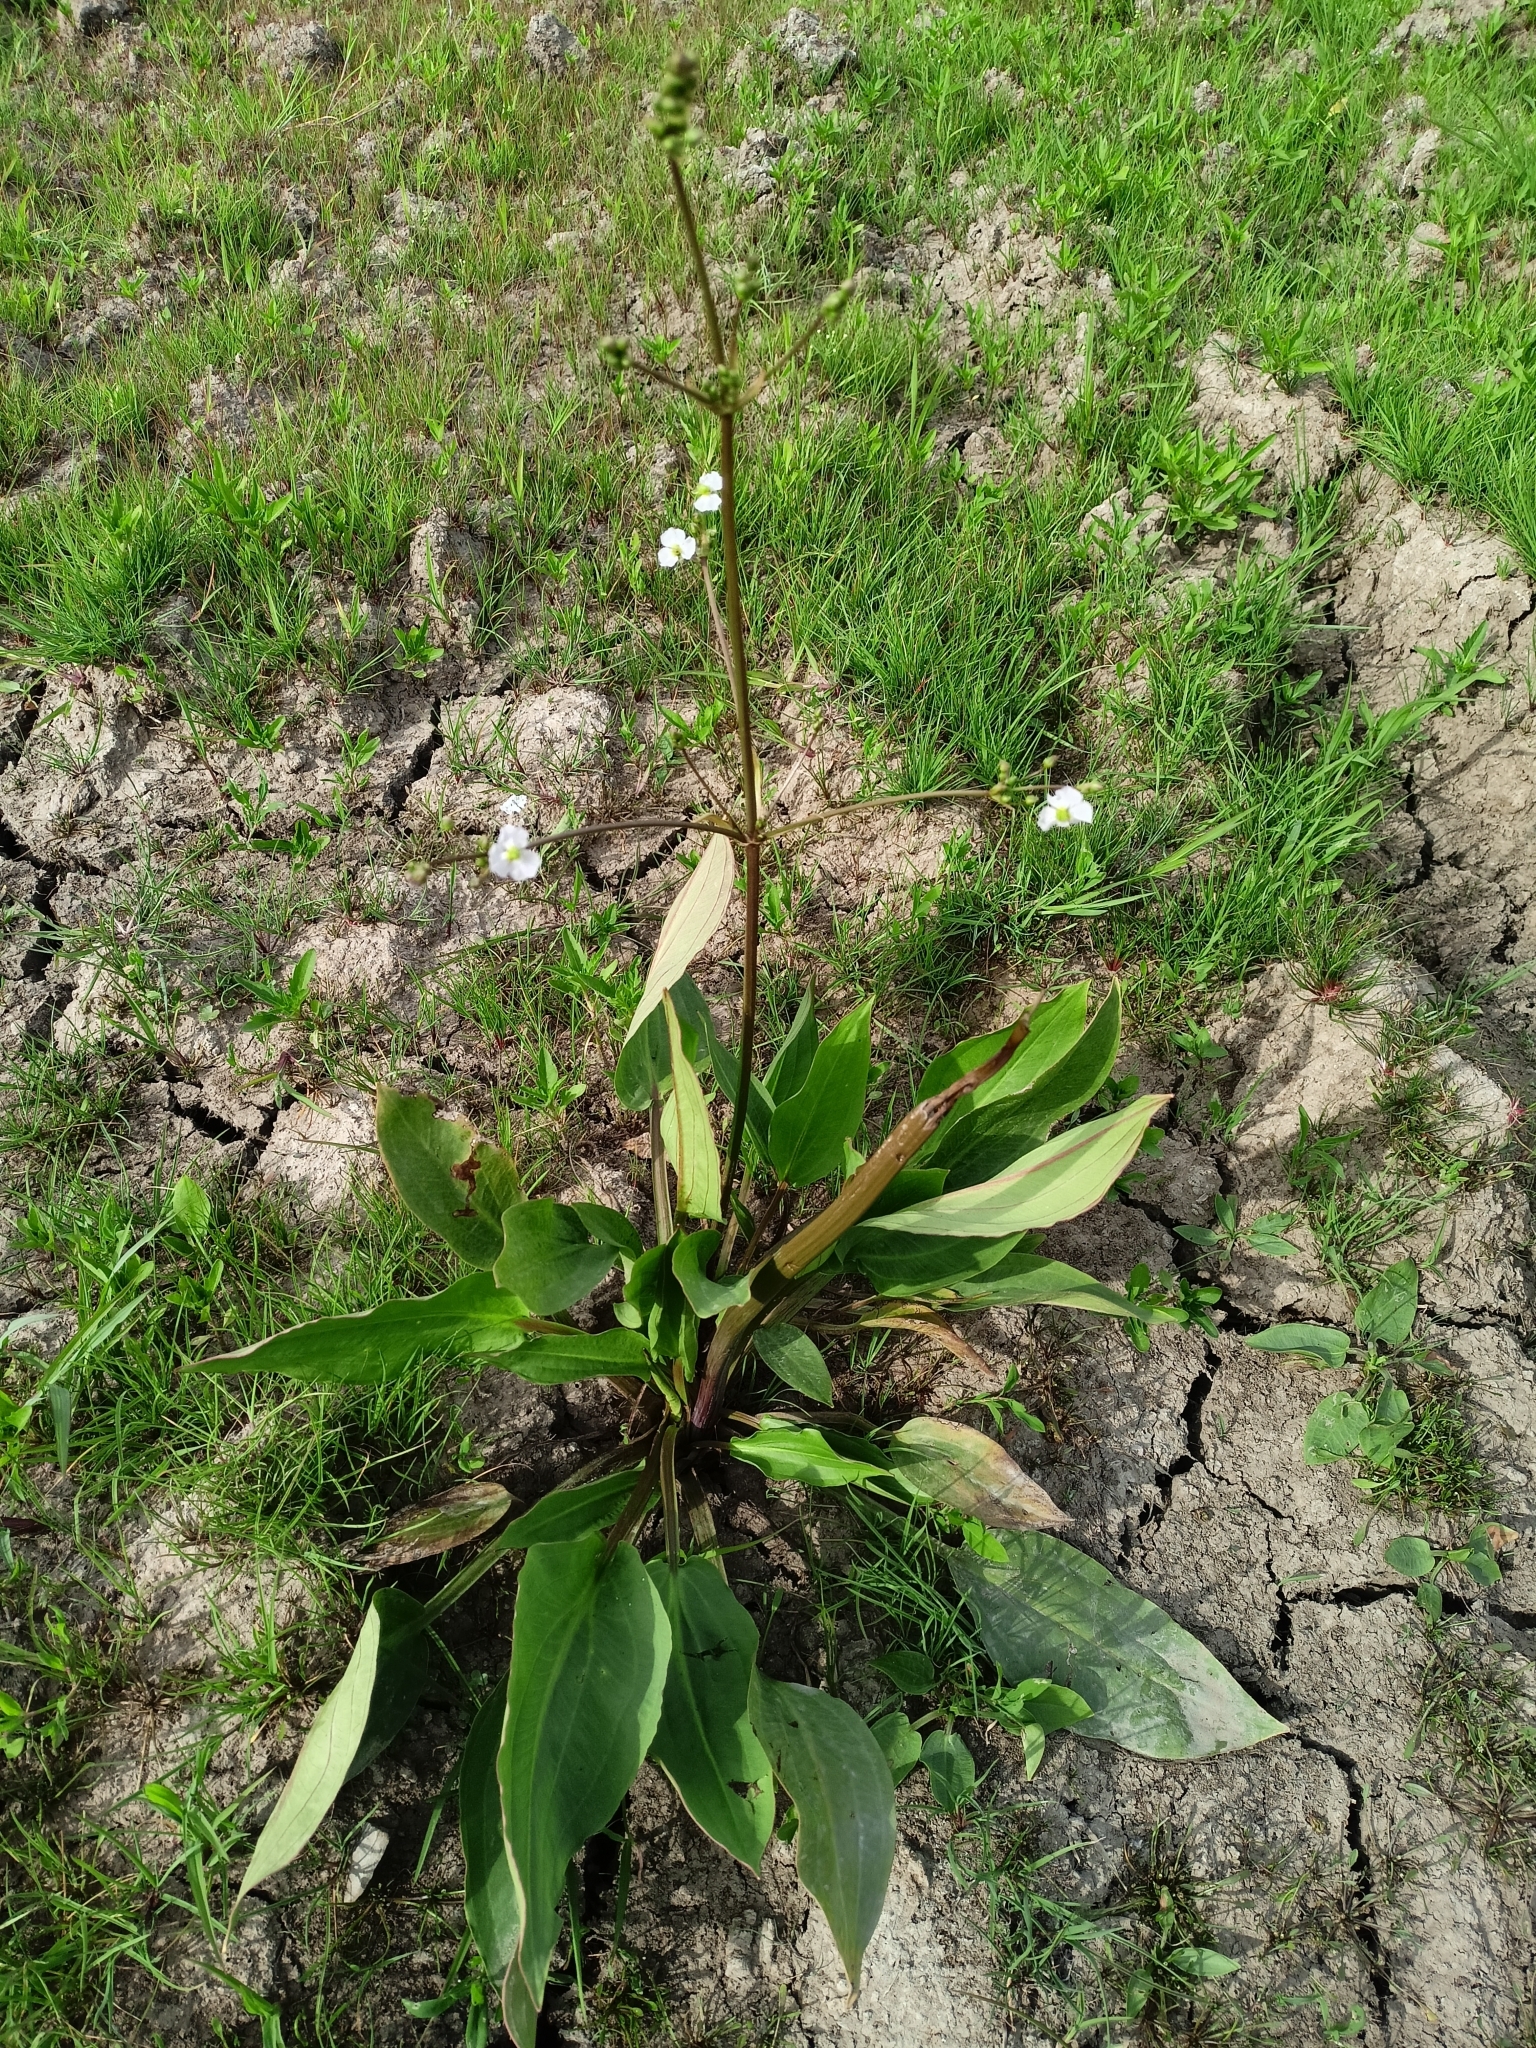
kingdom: Plantae
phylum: Tracheophyta
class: Liliopsida
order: Alismatales
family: Alismataceae
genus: Alisma
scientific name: Alisma plantago-aquatica
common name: Water-plantain
